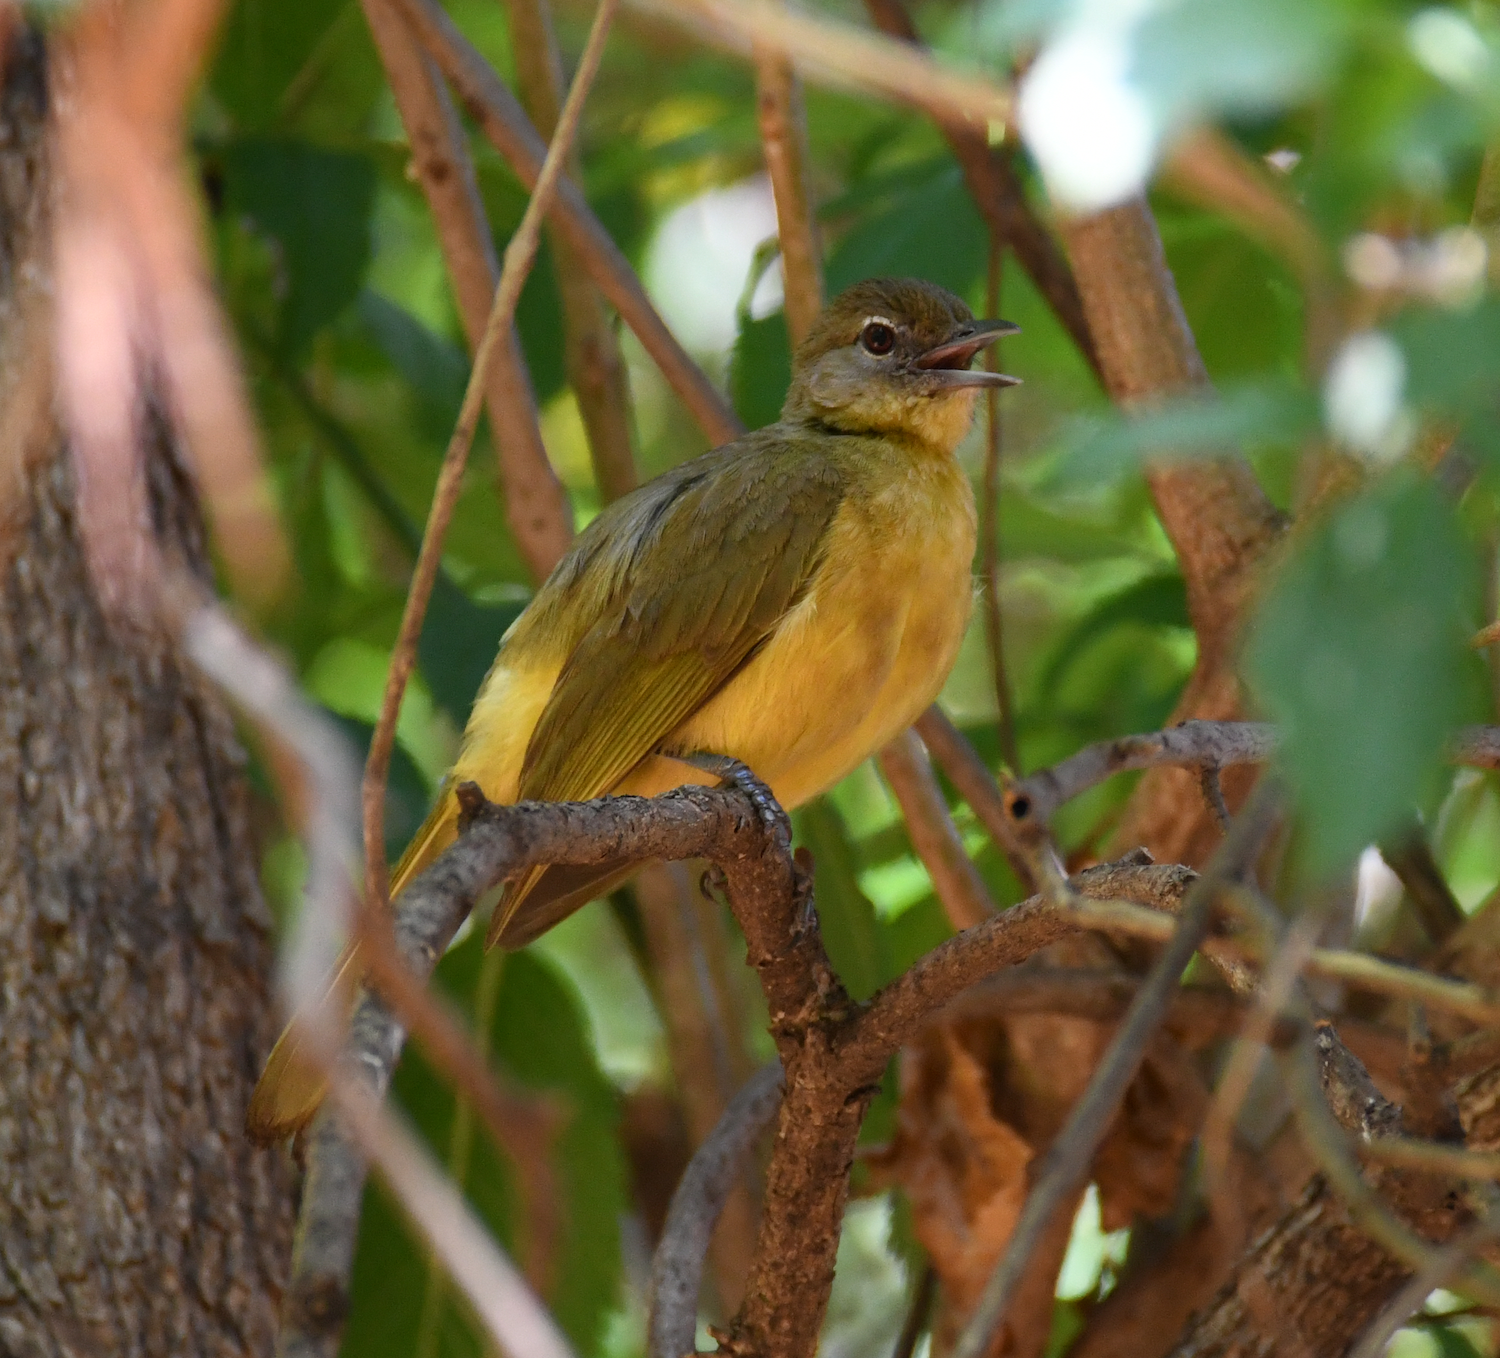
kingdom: Animalia
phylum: Chordata
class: Aves
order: Passeriformes
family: Pycnonotidae
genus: Chlorocichla
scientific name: Chlorocichla flaviventris
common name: Yellow-bellied greenbul
